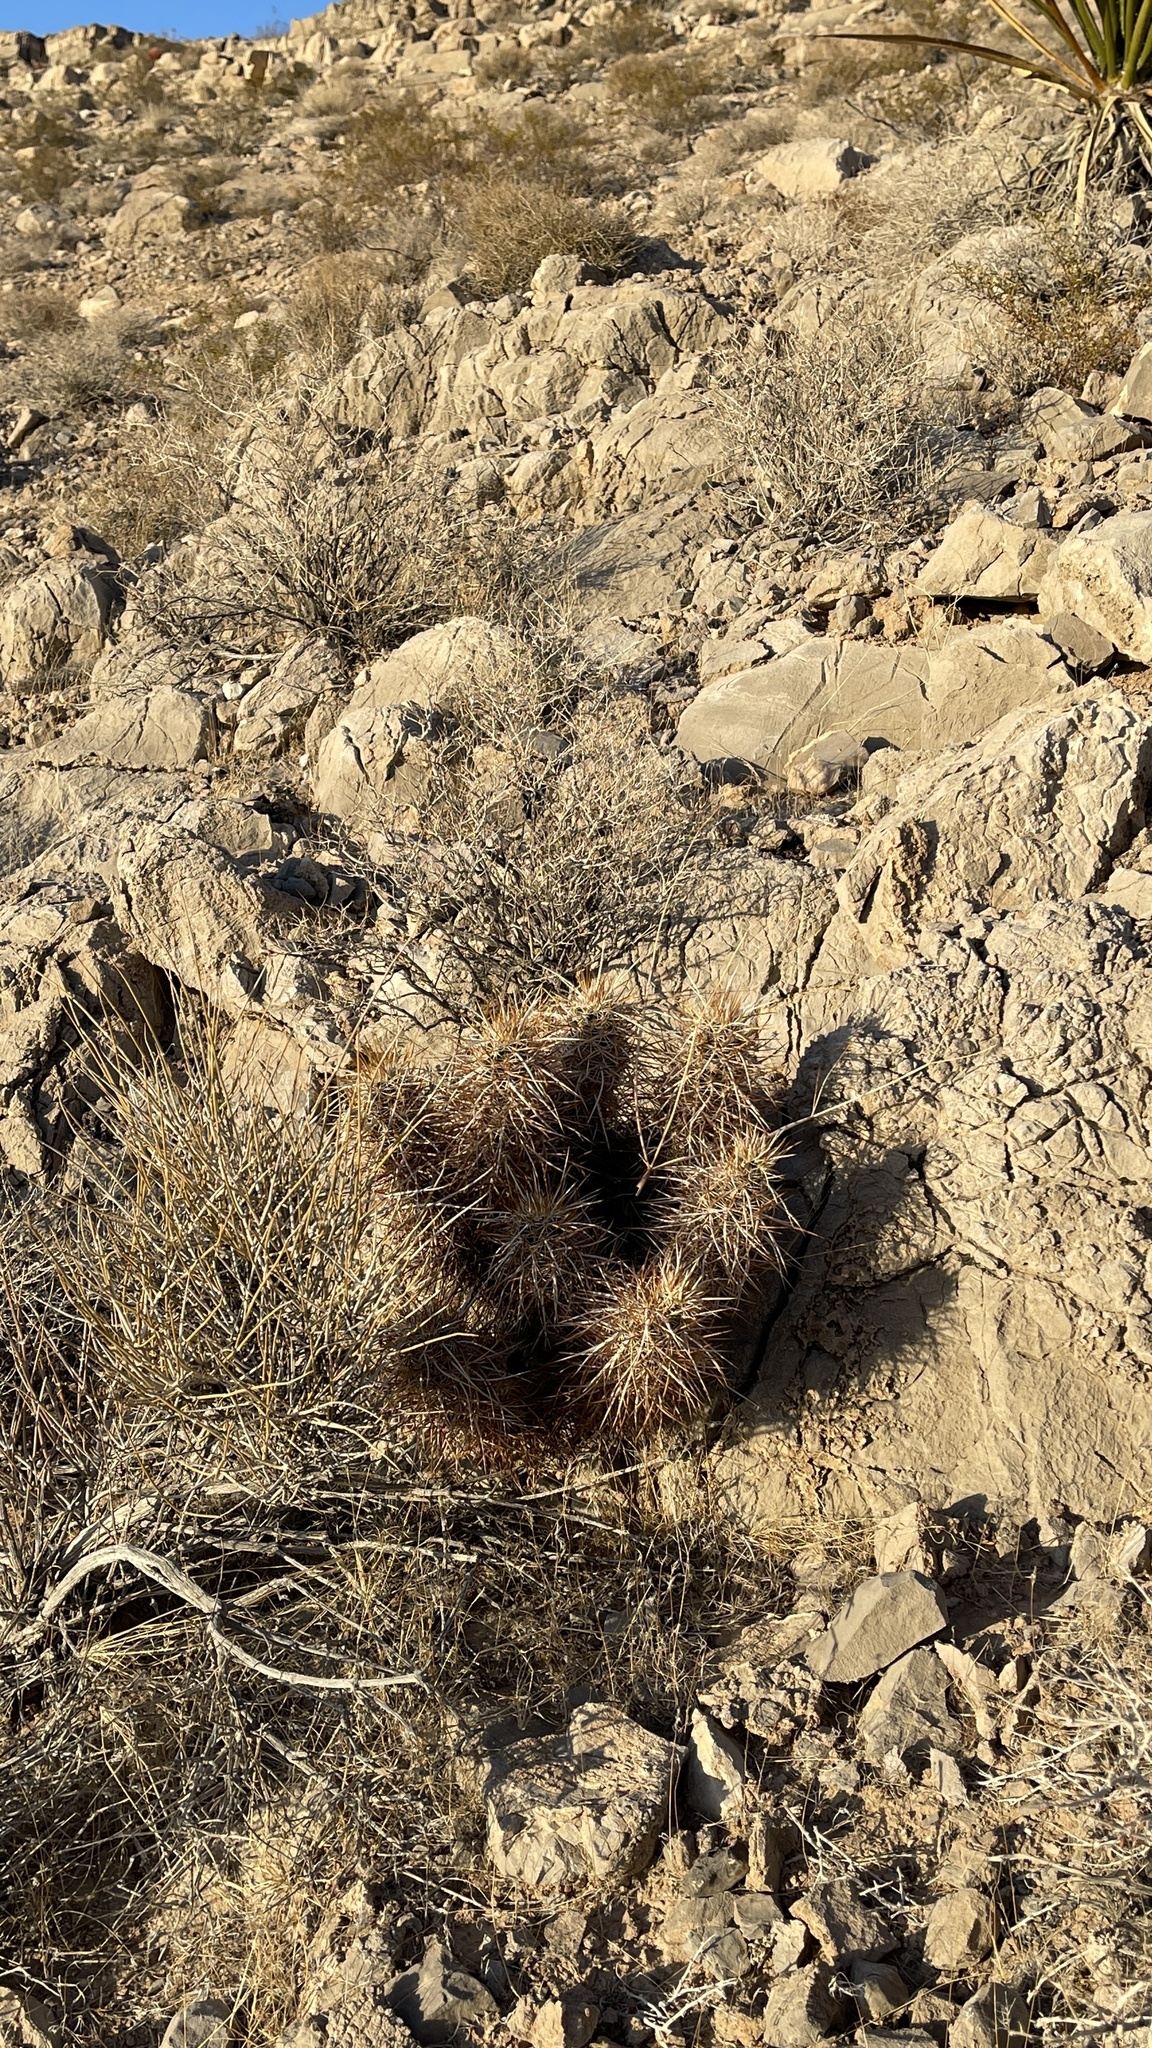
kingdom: Plantae
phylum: Tracheophyta
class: Magnoliopsida
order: Caryophyllales
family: Cactaceae
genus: Echinocereus
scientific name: Echinocereus engelmannii
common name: Engelmann's hedgehog cactus
